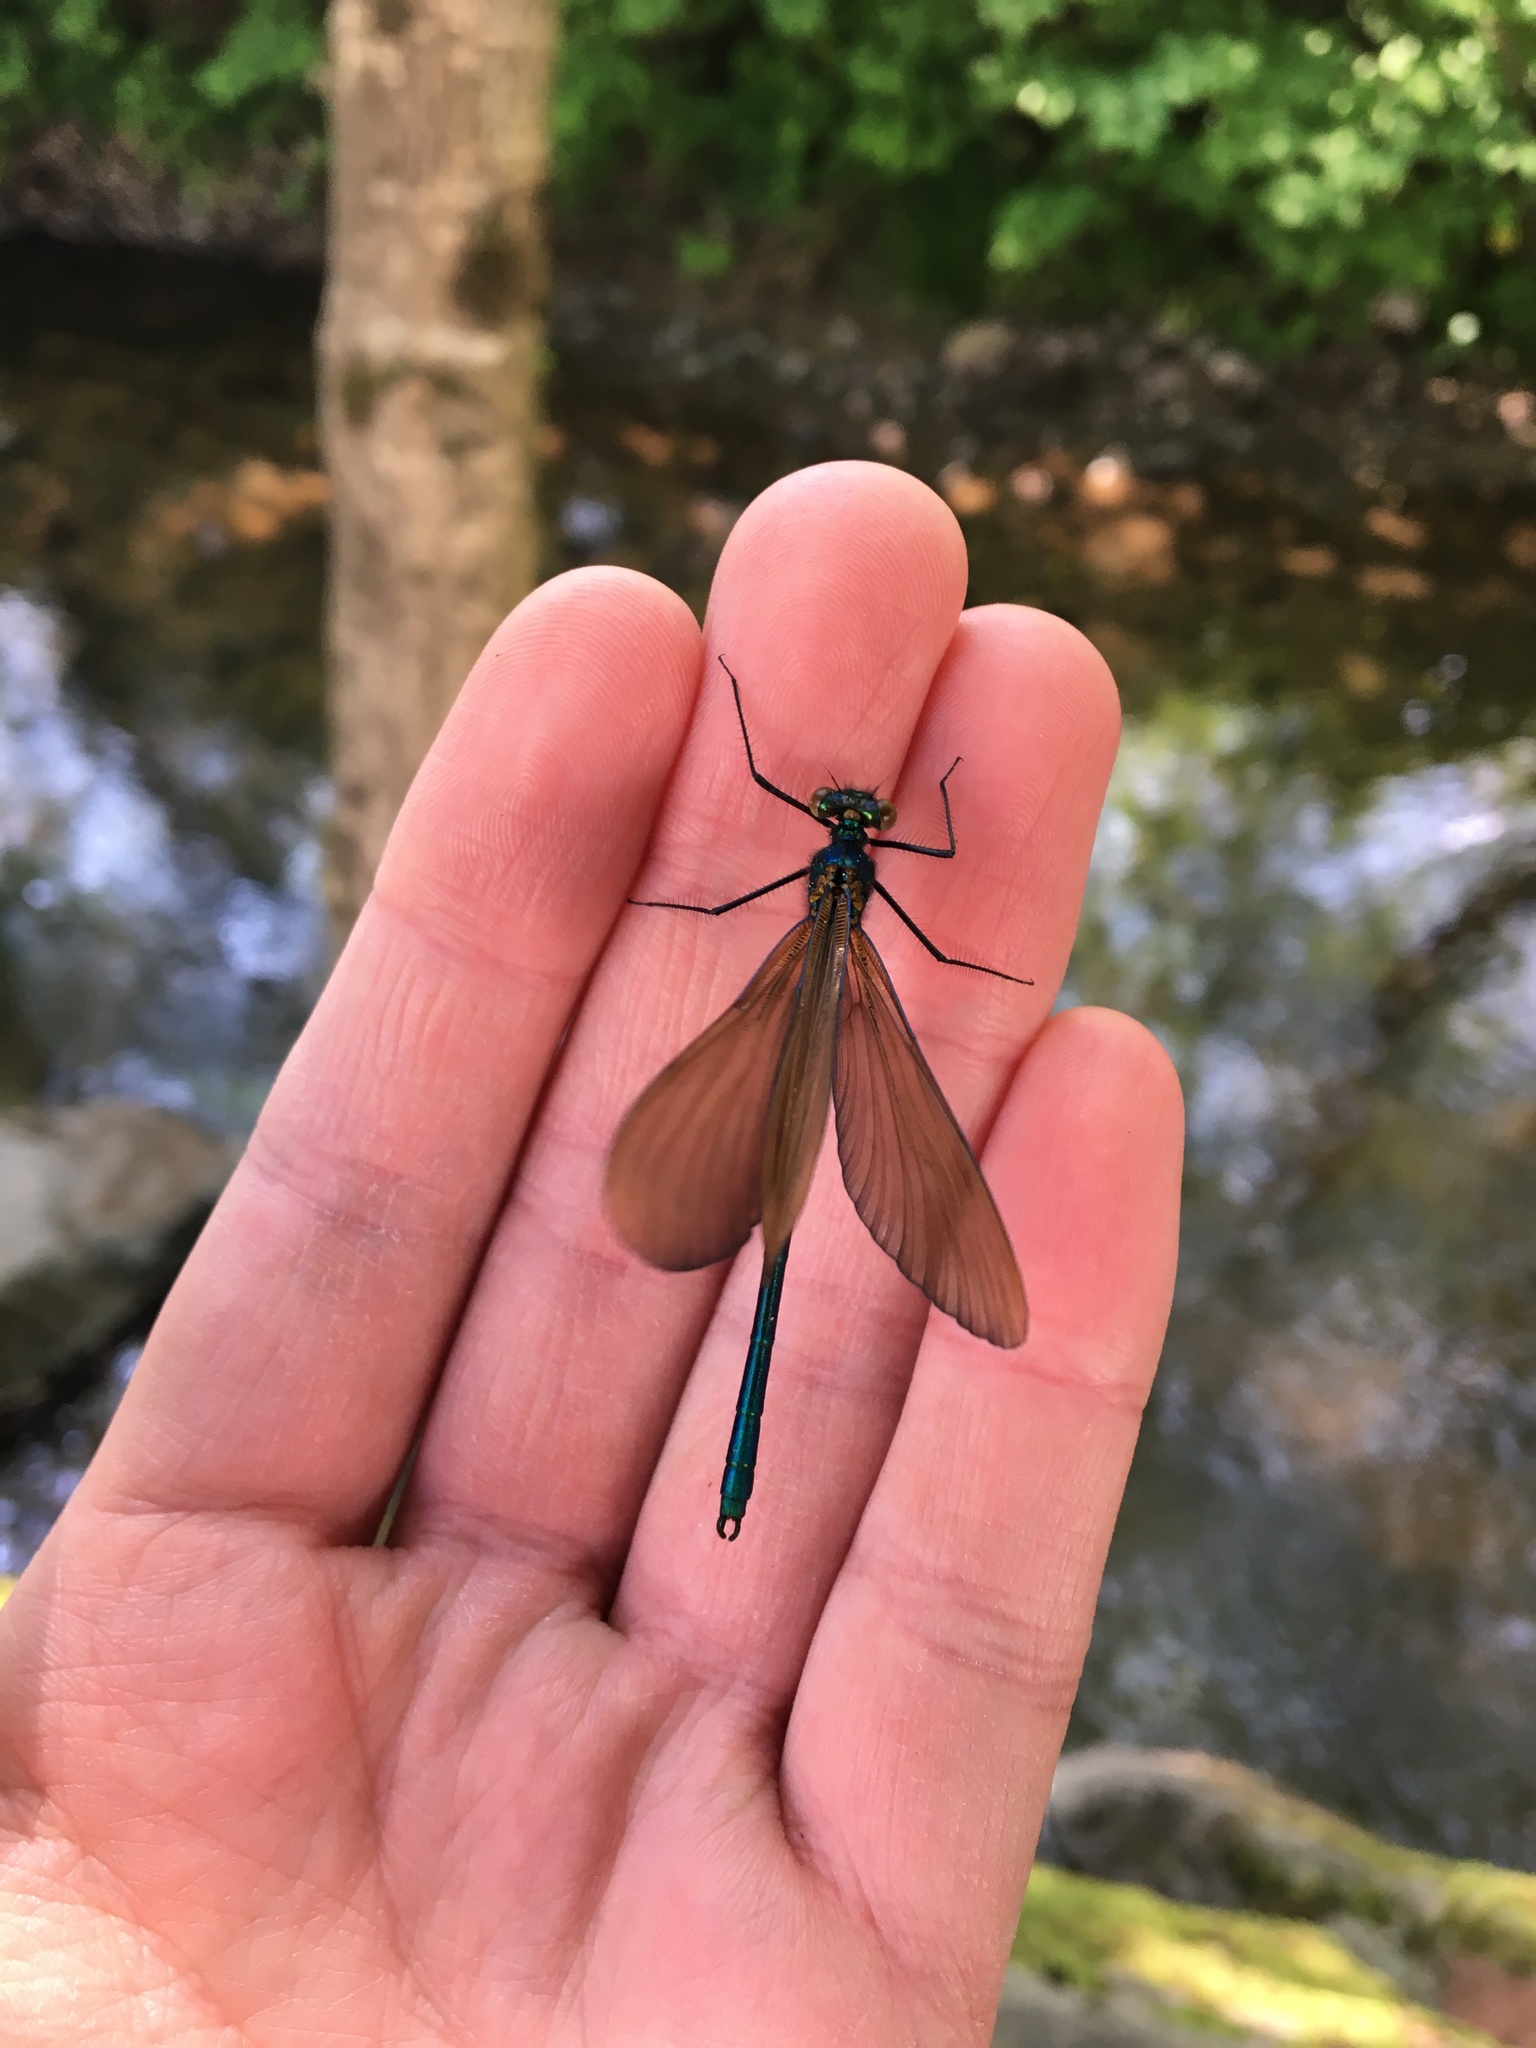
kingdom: Animalia
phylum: Arthropoda
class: Insecta
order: Odonata
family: Calopterygidae
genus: Calopteryx
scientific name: Calopteryx virgo
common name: Beautiful demoiselle
